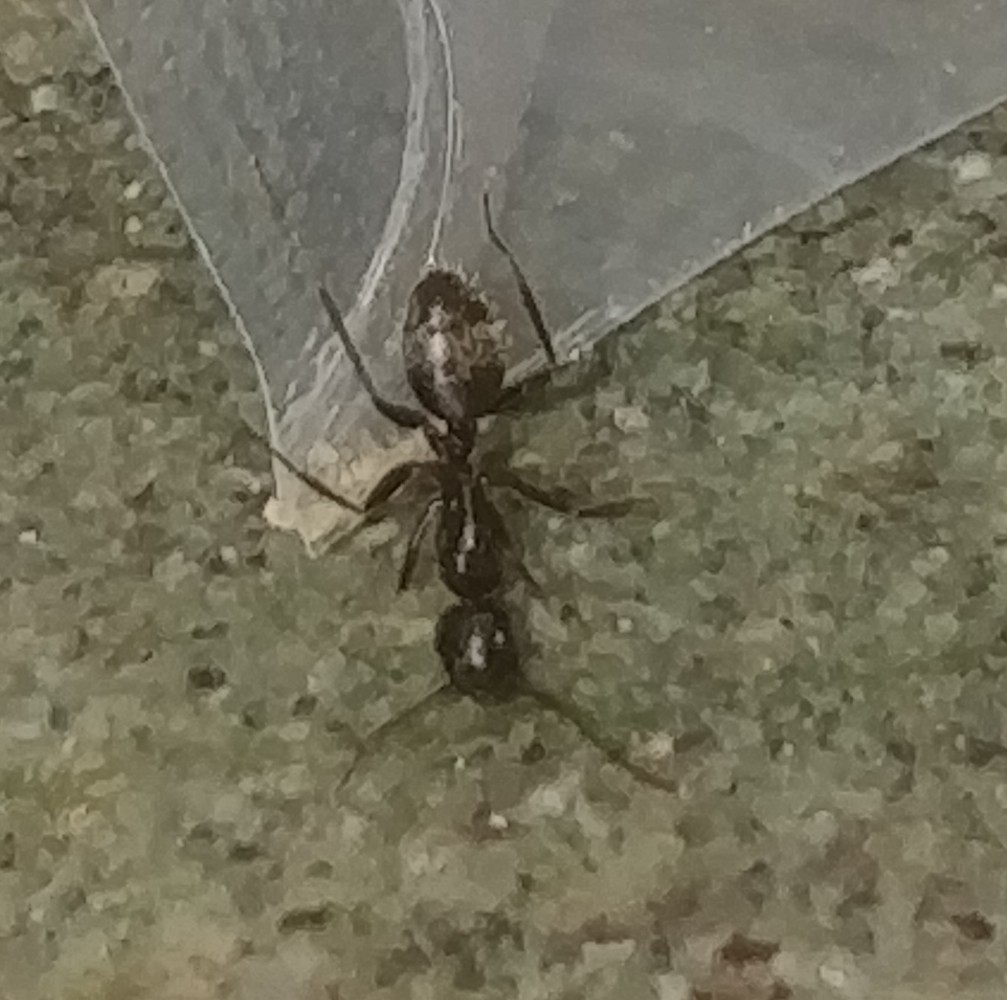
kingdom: Animalia
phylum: Arthropoda
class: Insecta
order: Hymenoptera
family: Formicidae
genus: Camponotus
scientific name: Camponotus pennsylvanicus
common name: Black carpenter ant
